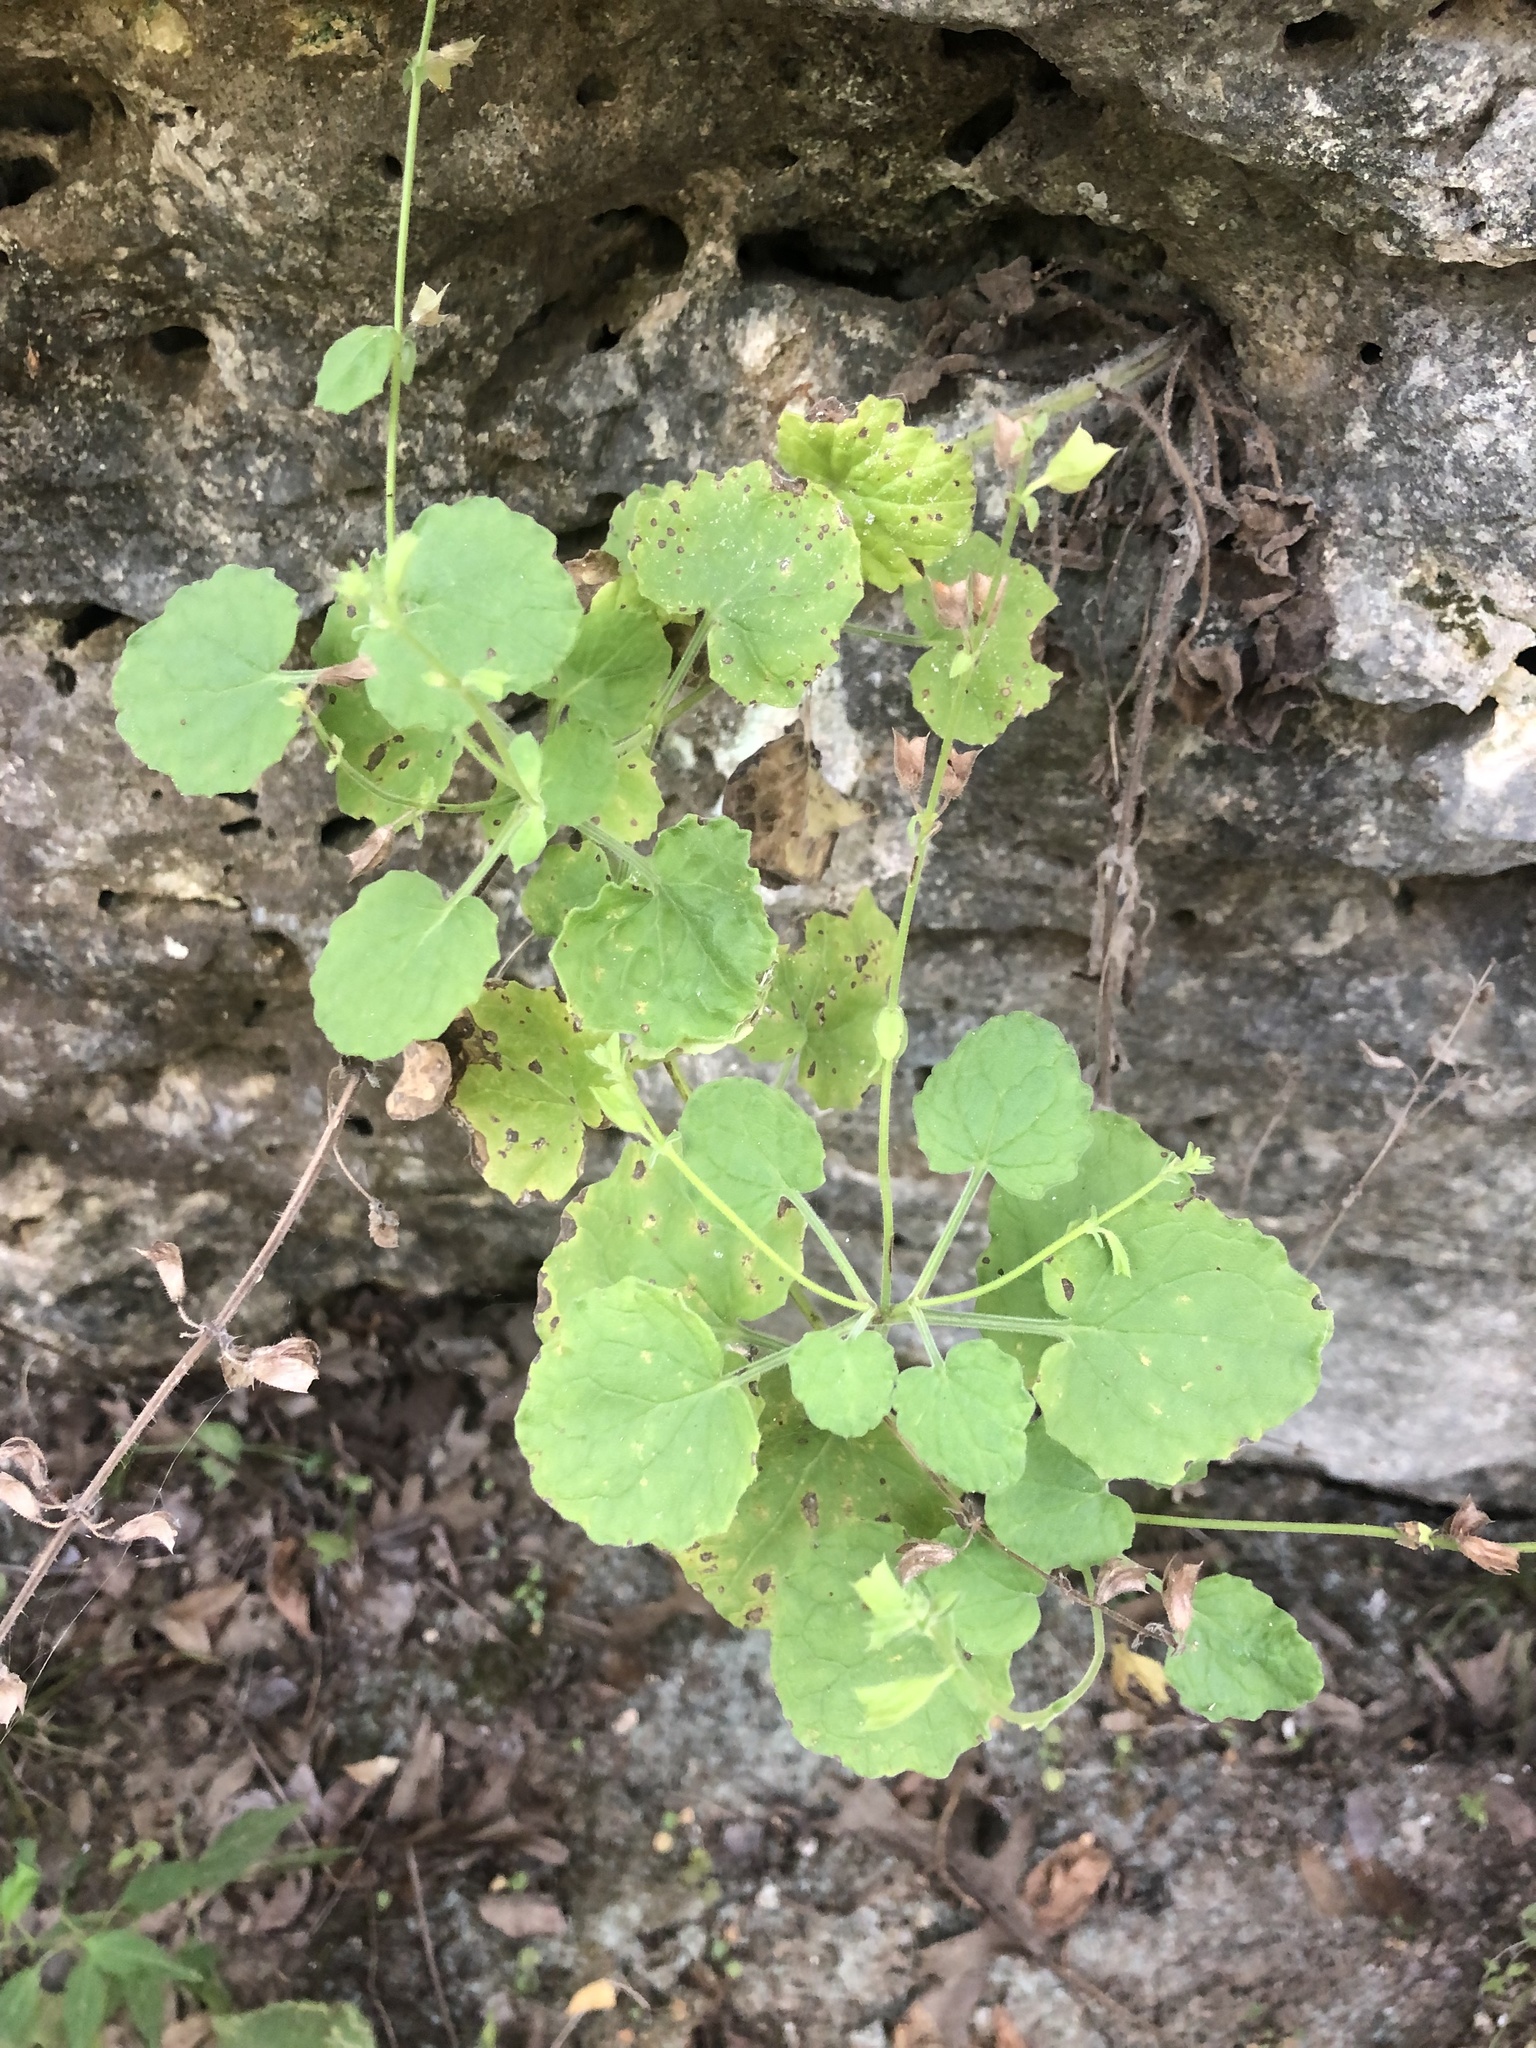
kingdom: Plantae
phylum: Tracheophyta
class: Magnoliopsida
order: Lamiales
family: Lamiaceae
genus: Salvia
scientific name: Salvia roemeriana
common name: Cedar sage
